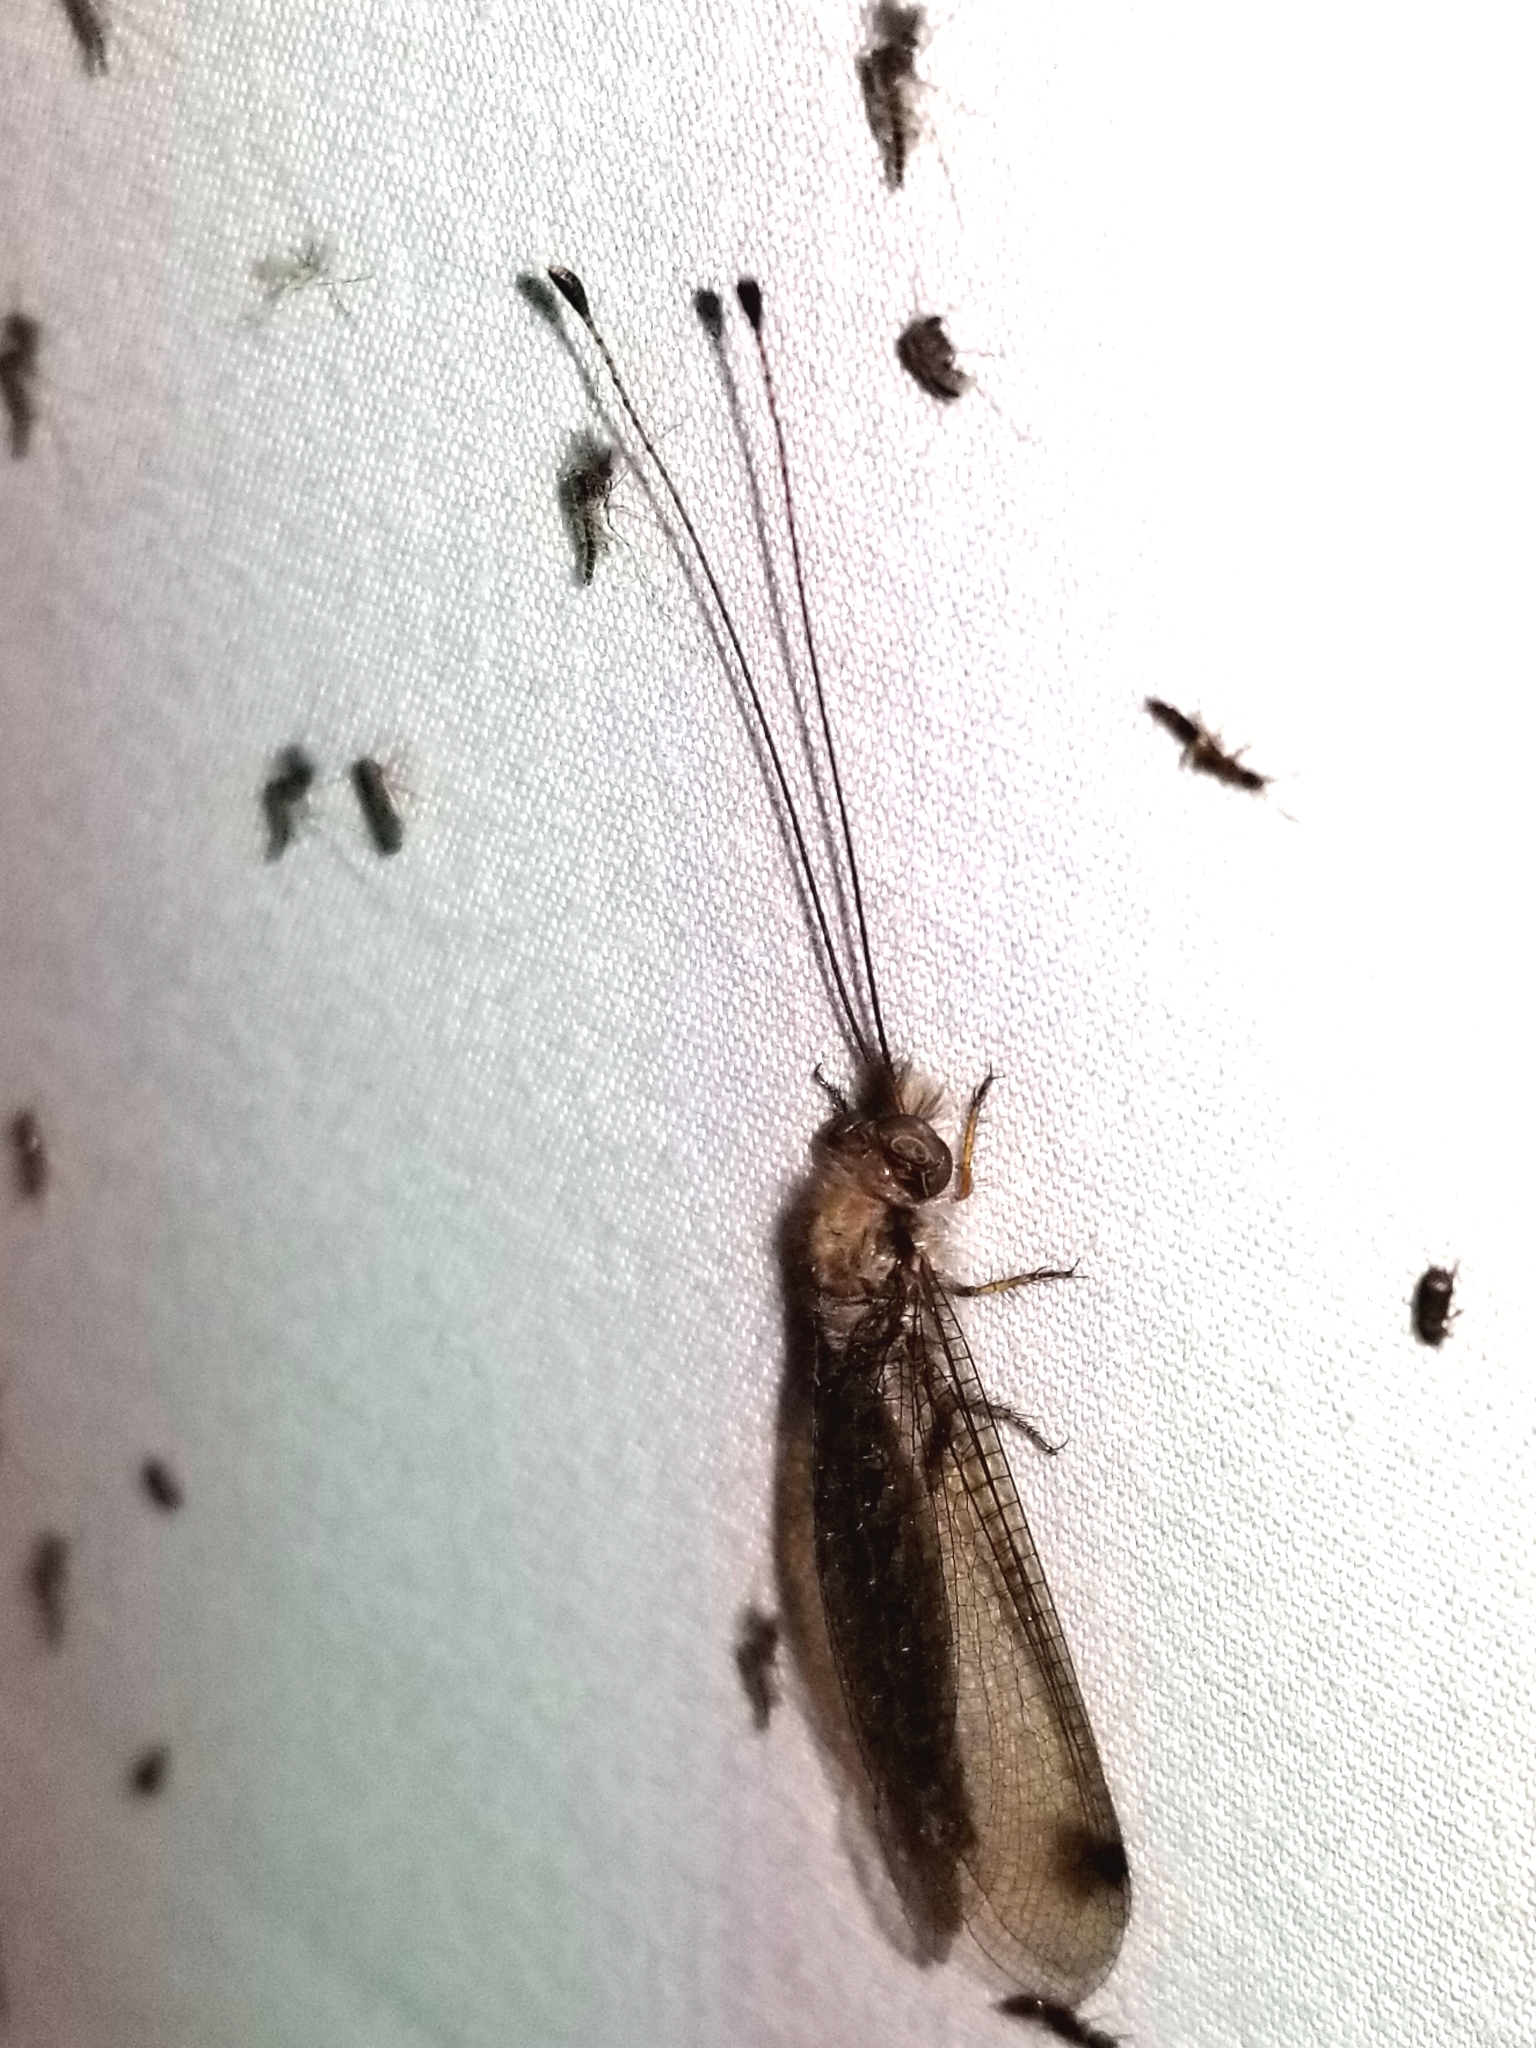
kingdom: Animalia
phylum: Arthropoda
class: Insecta
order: Neuroptera
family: Ascalaphidae
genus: Ululodes
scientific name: Ululodes macleayanus
